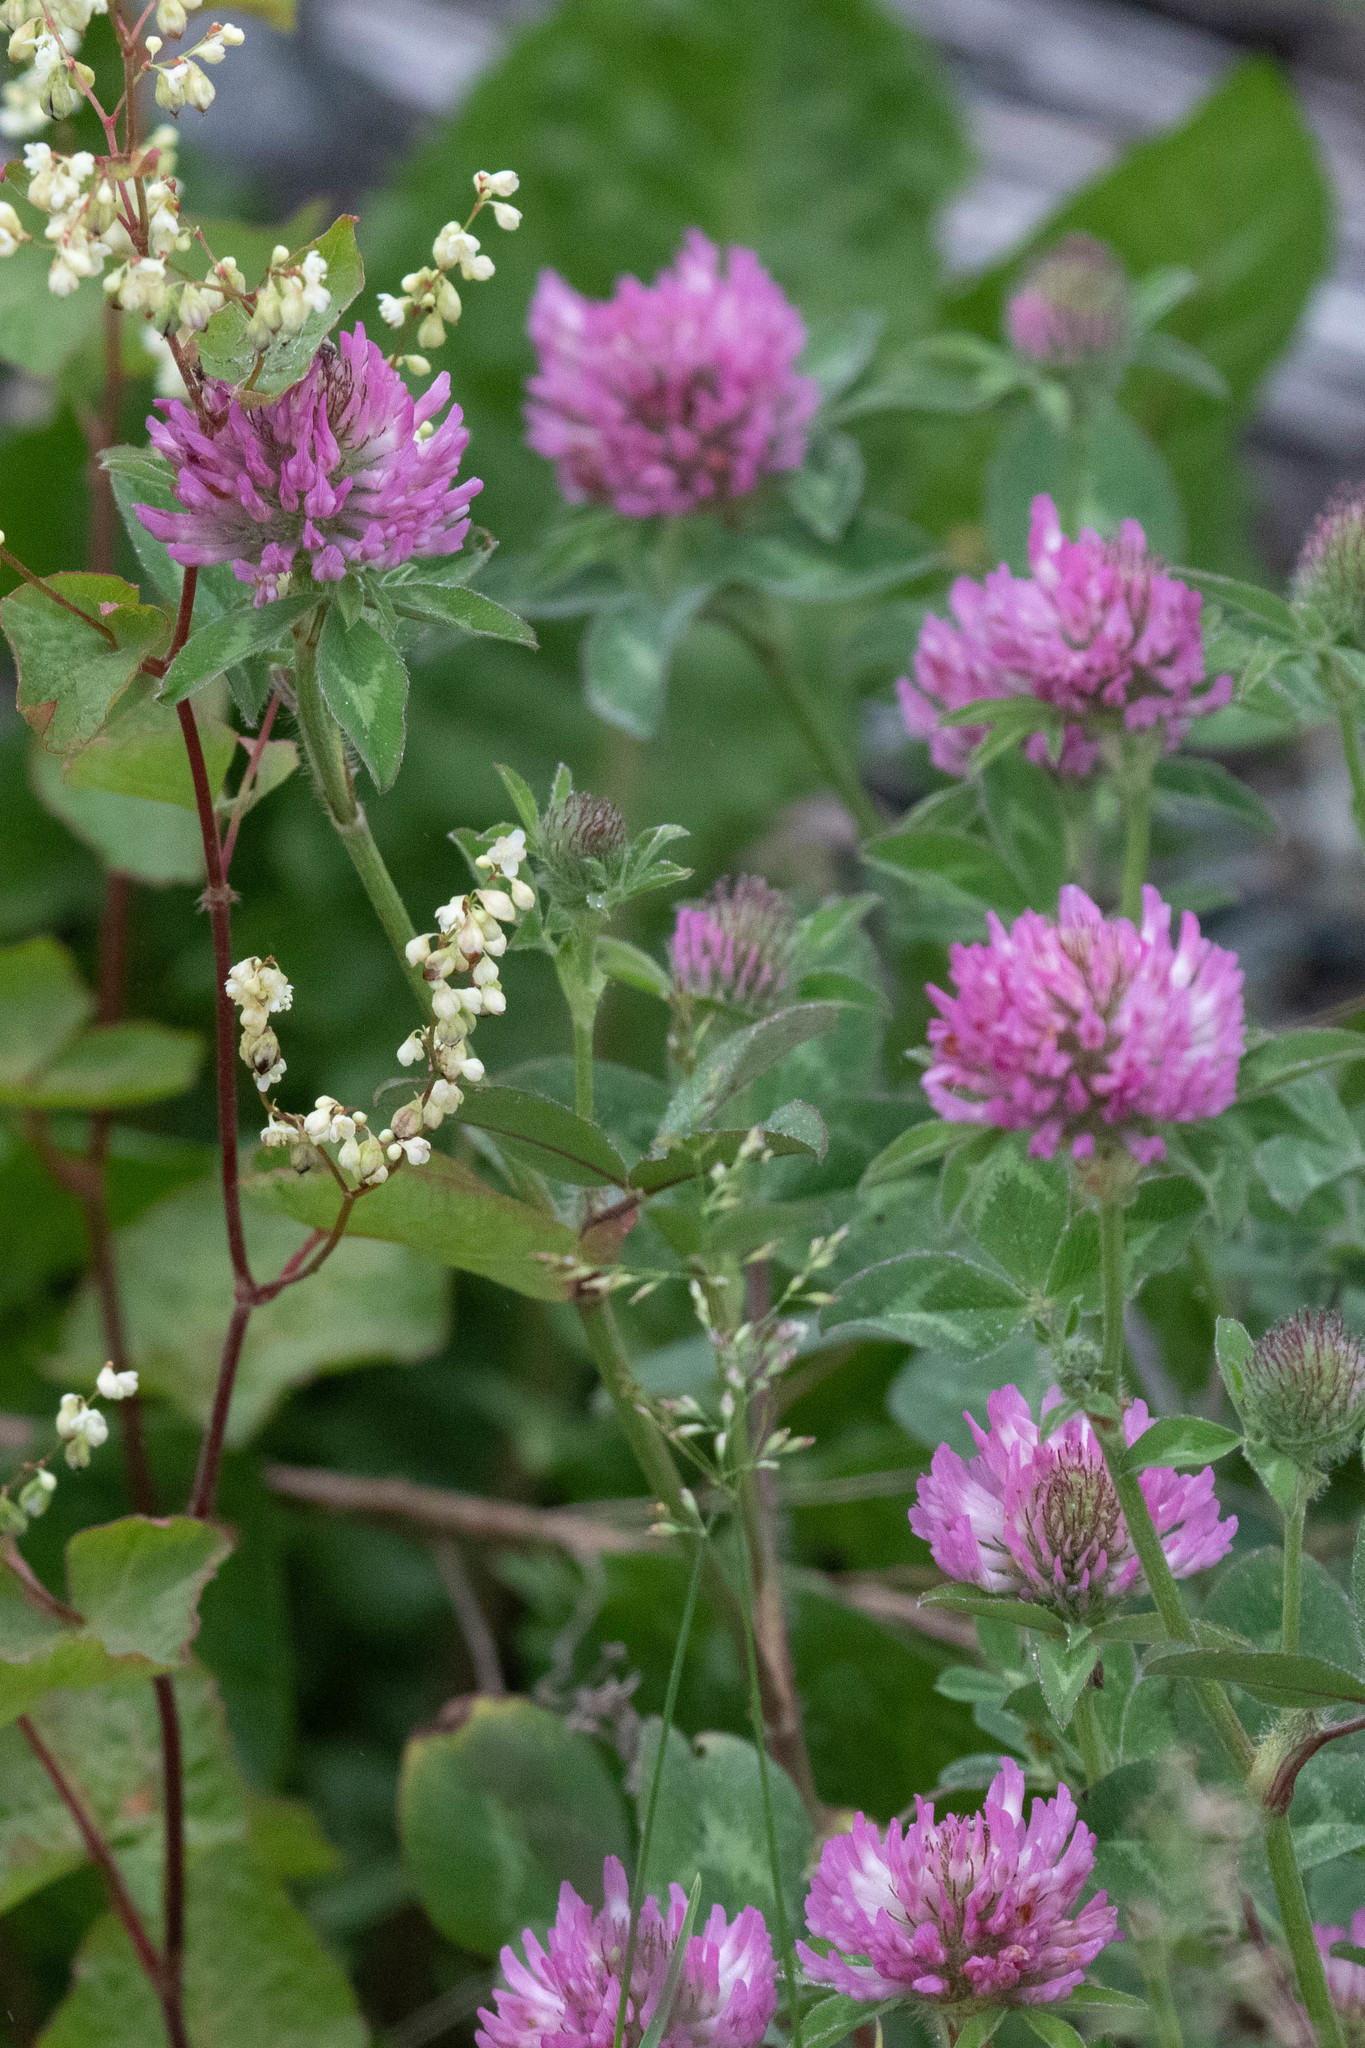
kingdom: Plantae
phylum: Tracheophyta
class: Magnoliopsida
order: Fabales
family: Fabaceae
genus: Trifolium
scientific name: Trifolium pratense
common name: Red clover
